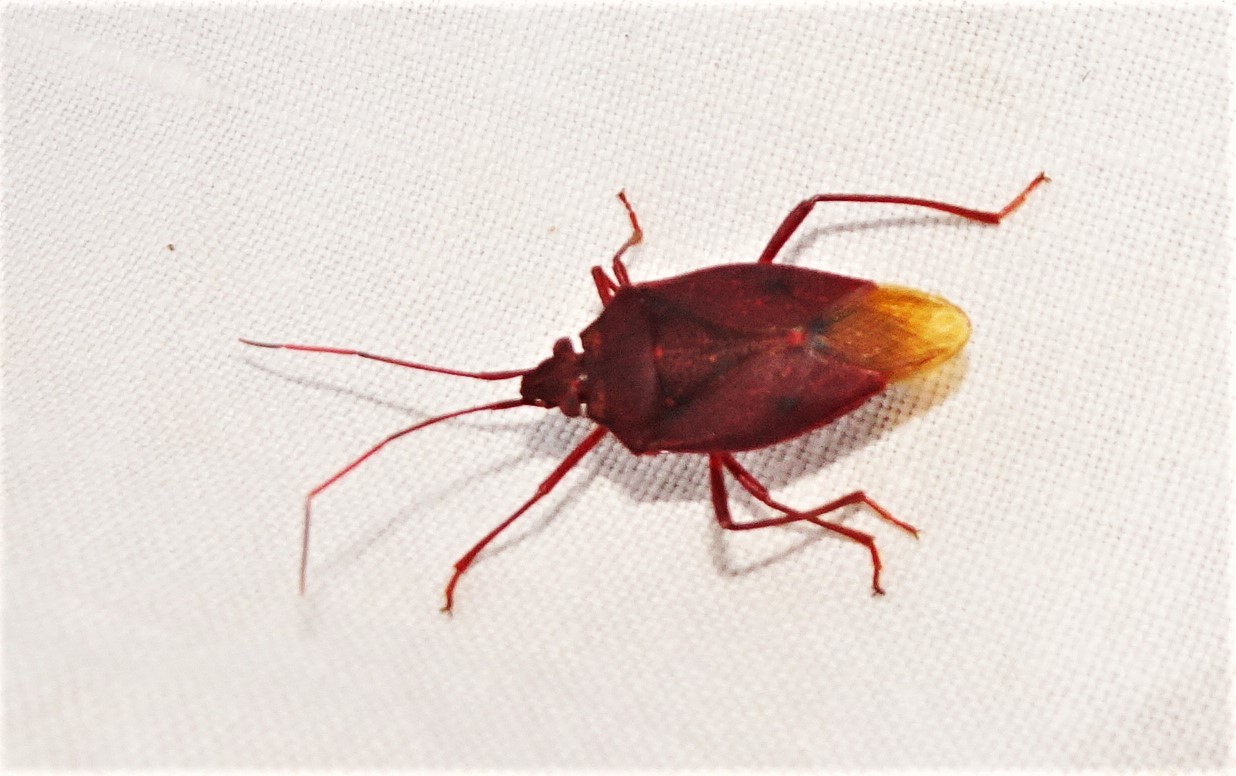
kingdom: Animalia
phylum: Arthropoda
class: Insecta
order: Hemiptera
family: Pentatomidae
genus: Poecilometis
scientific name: Poecilometis
